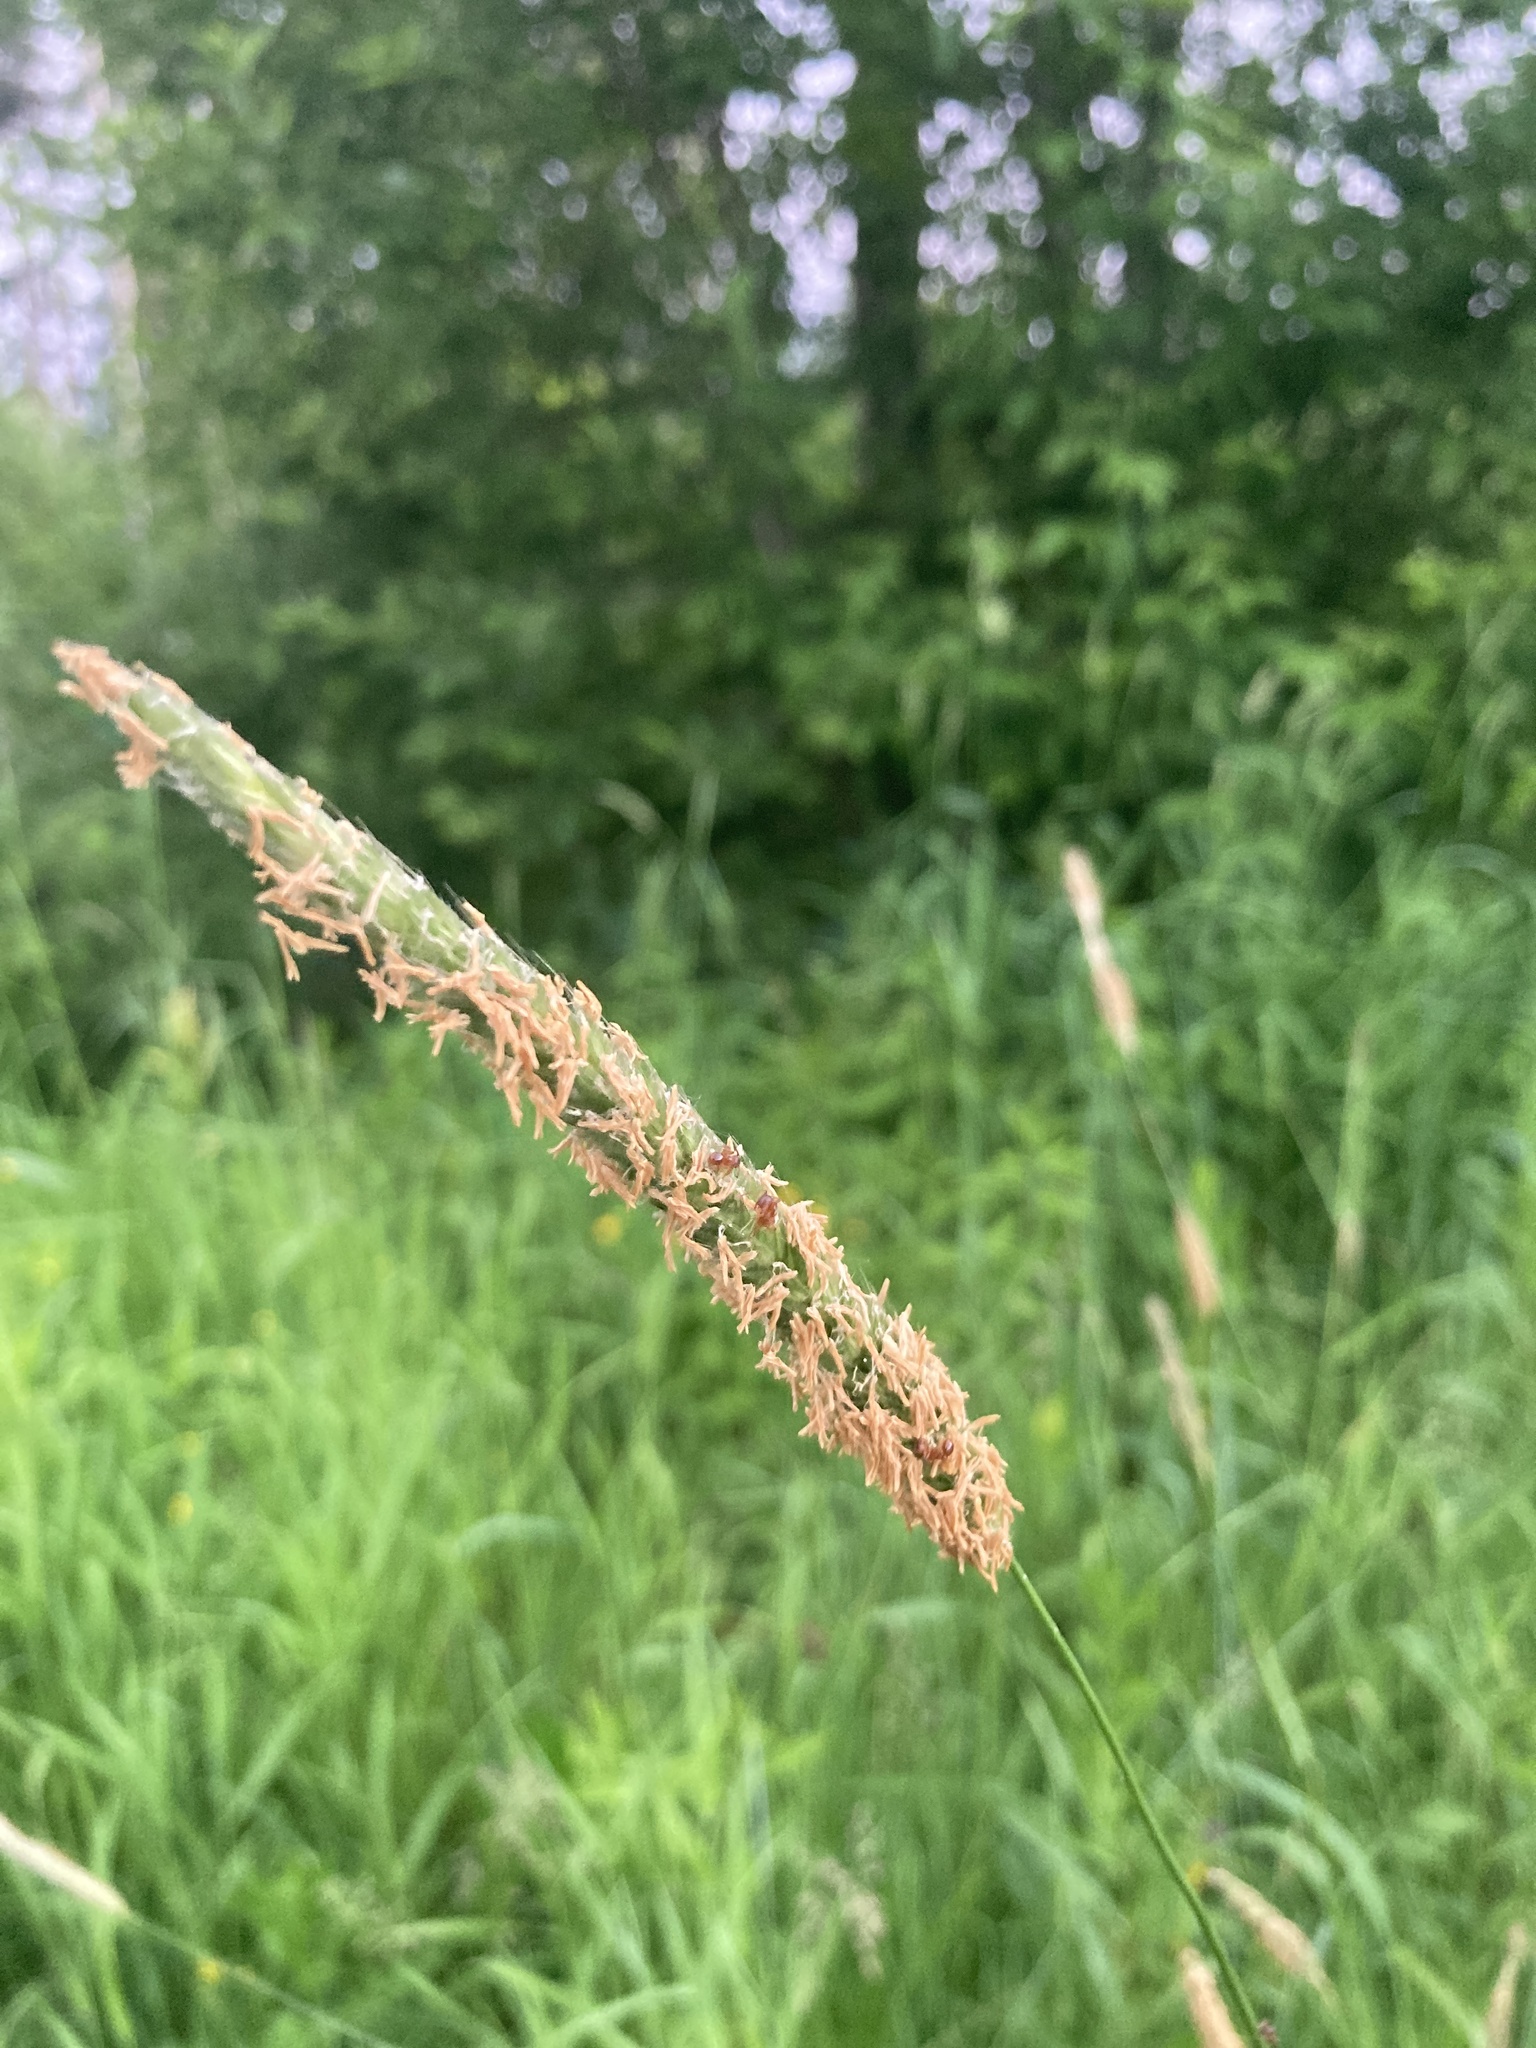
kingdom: Plantae
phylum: Tracheophyta
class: Liliopsida
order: Poales
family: Poaceae
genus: Alopecurus
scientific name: Alopecurus pratensis
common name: Meadow foxtail
